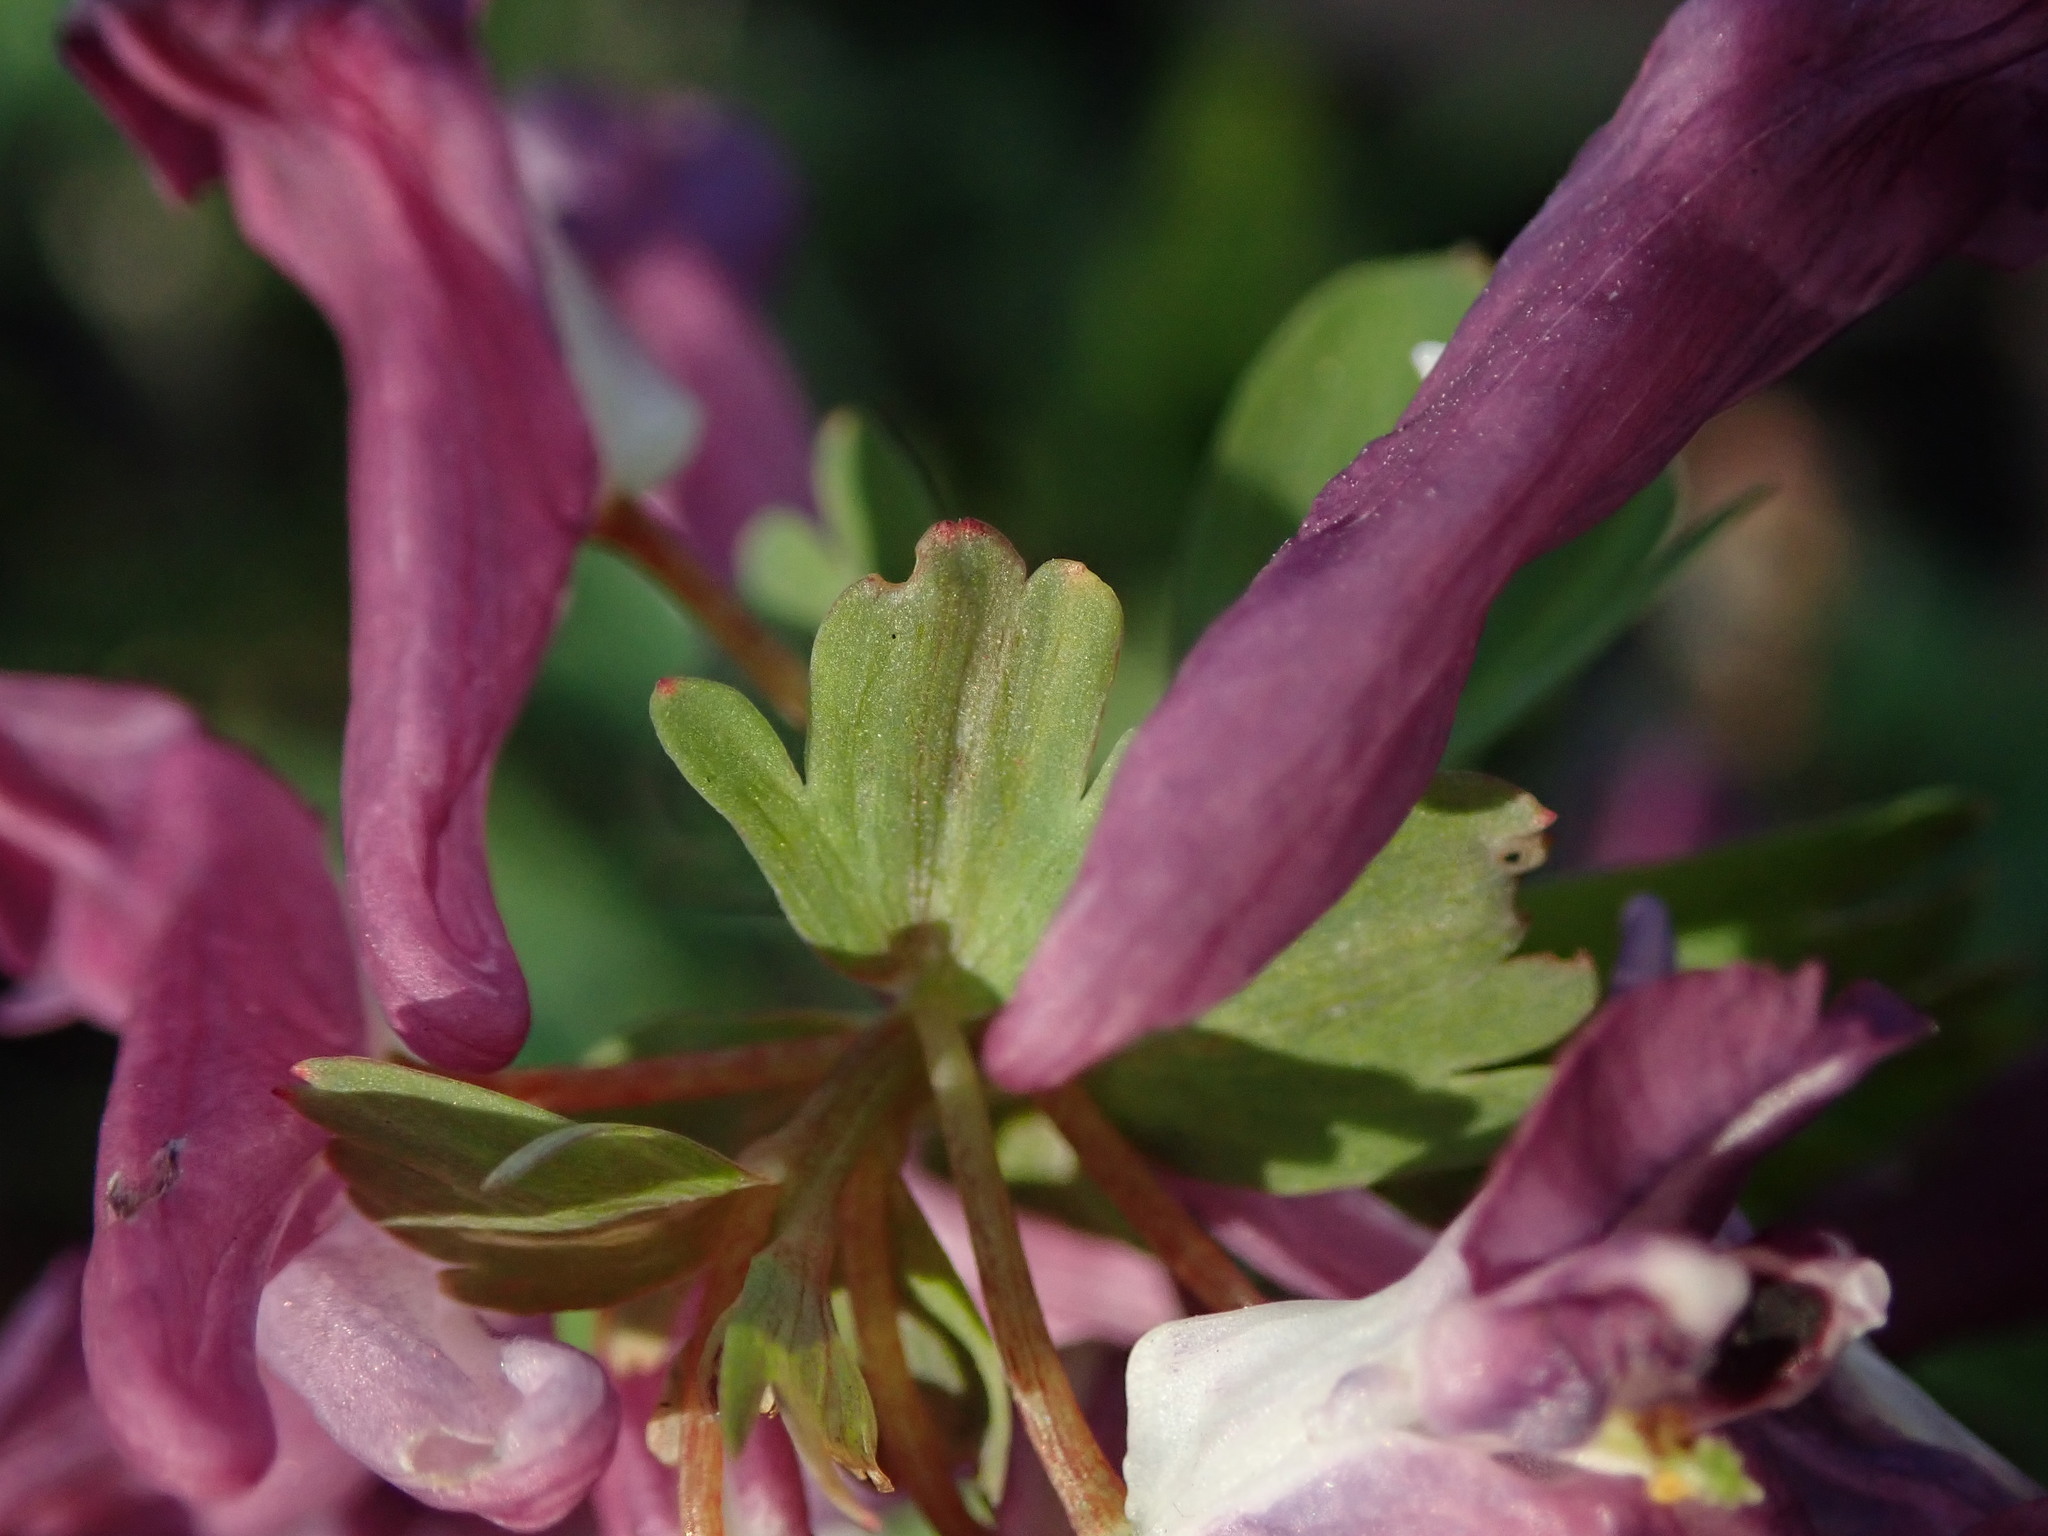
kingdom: Plantae
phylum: Tracheophyta
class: Magnoliopsida
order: Ranunculales
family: Papaveraceae
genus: Corydalis
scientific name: Corydalis solida
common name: Bird-in-a-bush
